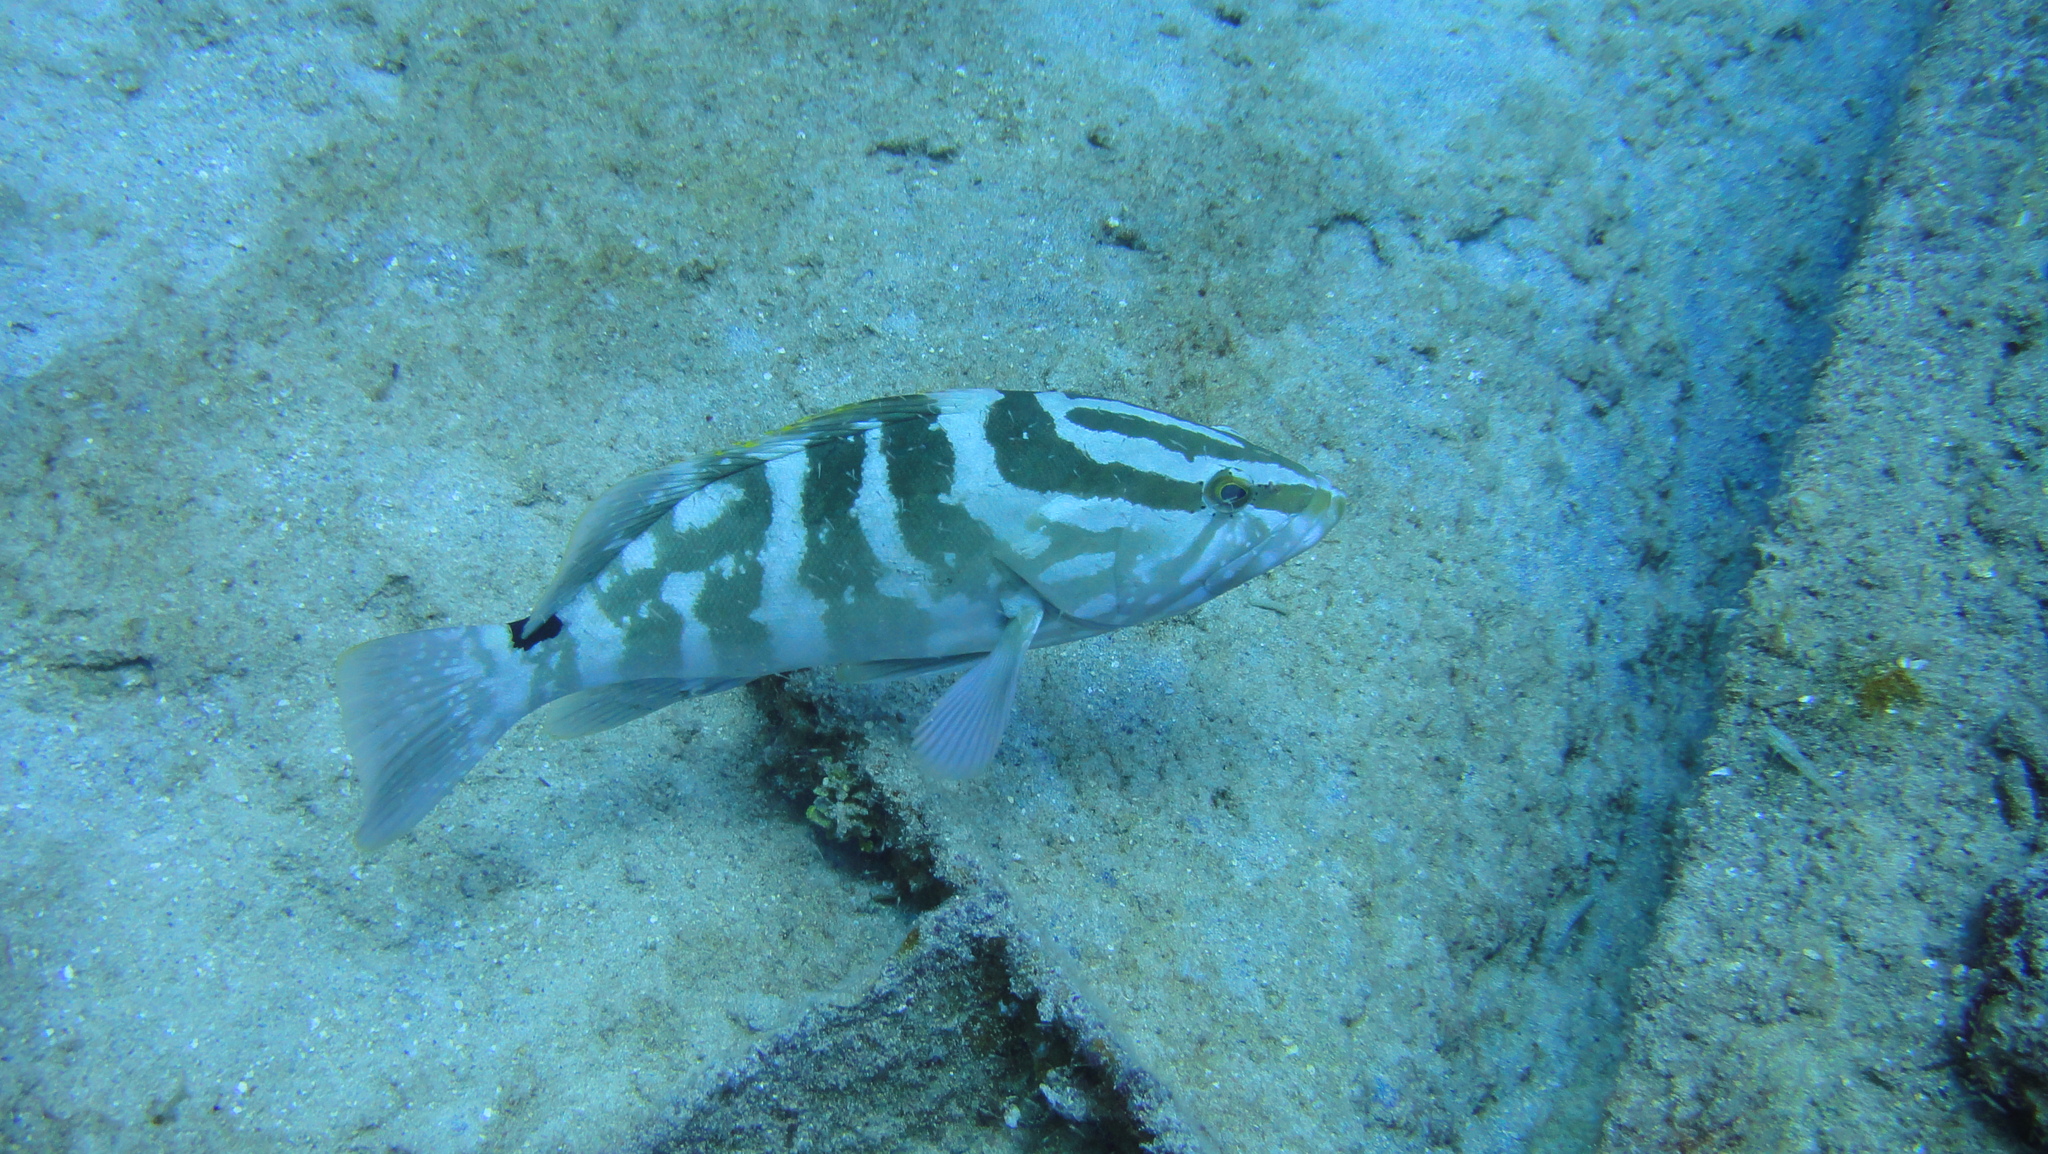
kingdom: Animalia
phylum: Chordata
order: Perciformes
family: Serranidae
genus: Epinephelus
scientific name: Epinephelus striatus
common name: Nassau grouper
